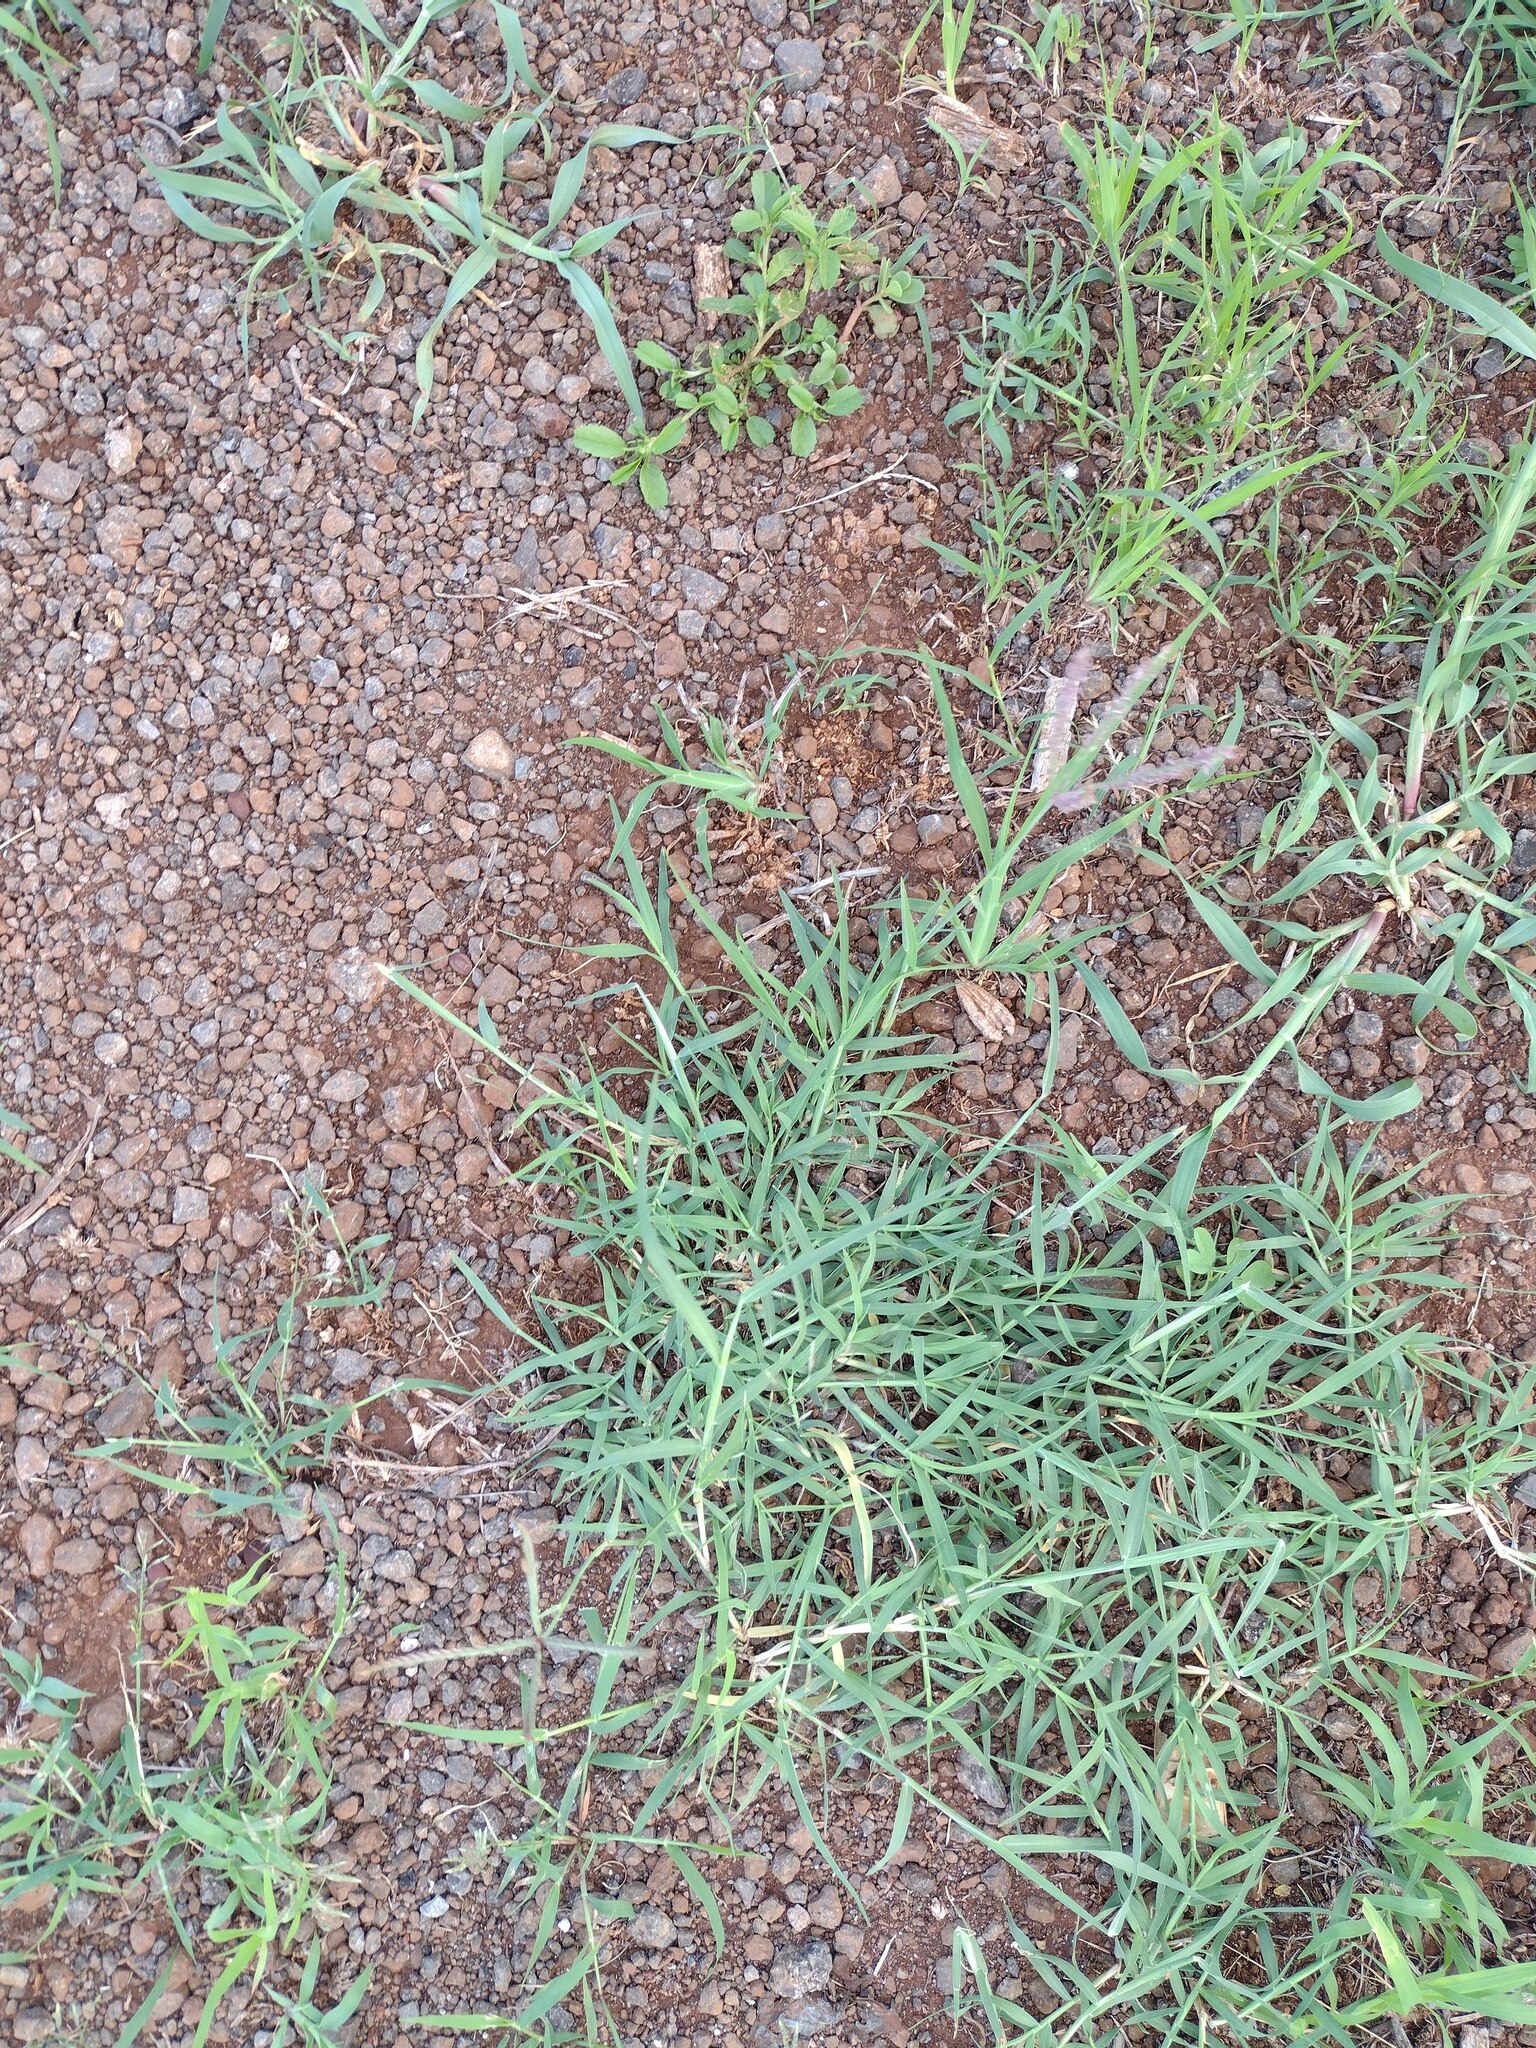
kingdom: Plantae
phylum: Tracheophyta
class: Liliopsida
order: Poales
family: Poaceae
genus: Cynodon
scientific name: Cynodon dactylon
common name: Bermuda grass
